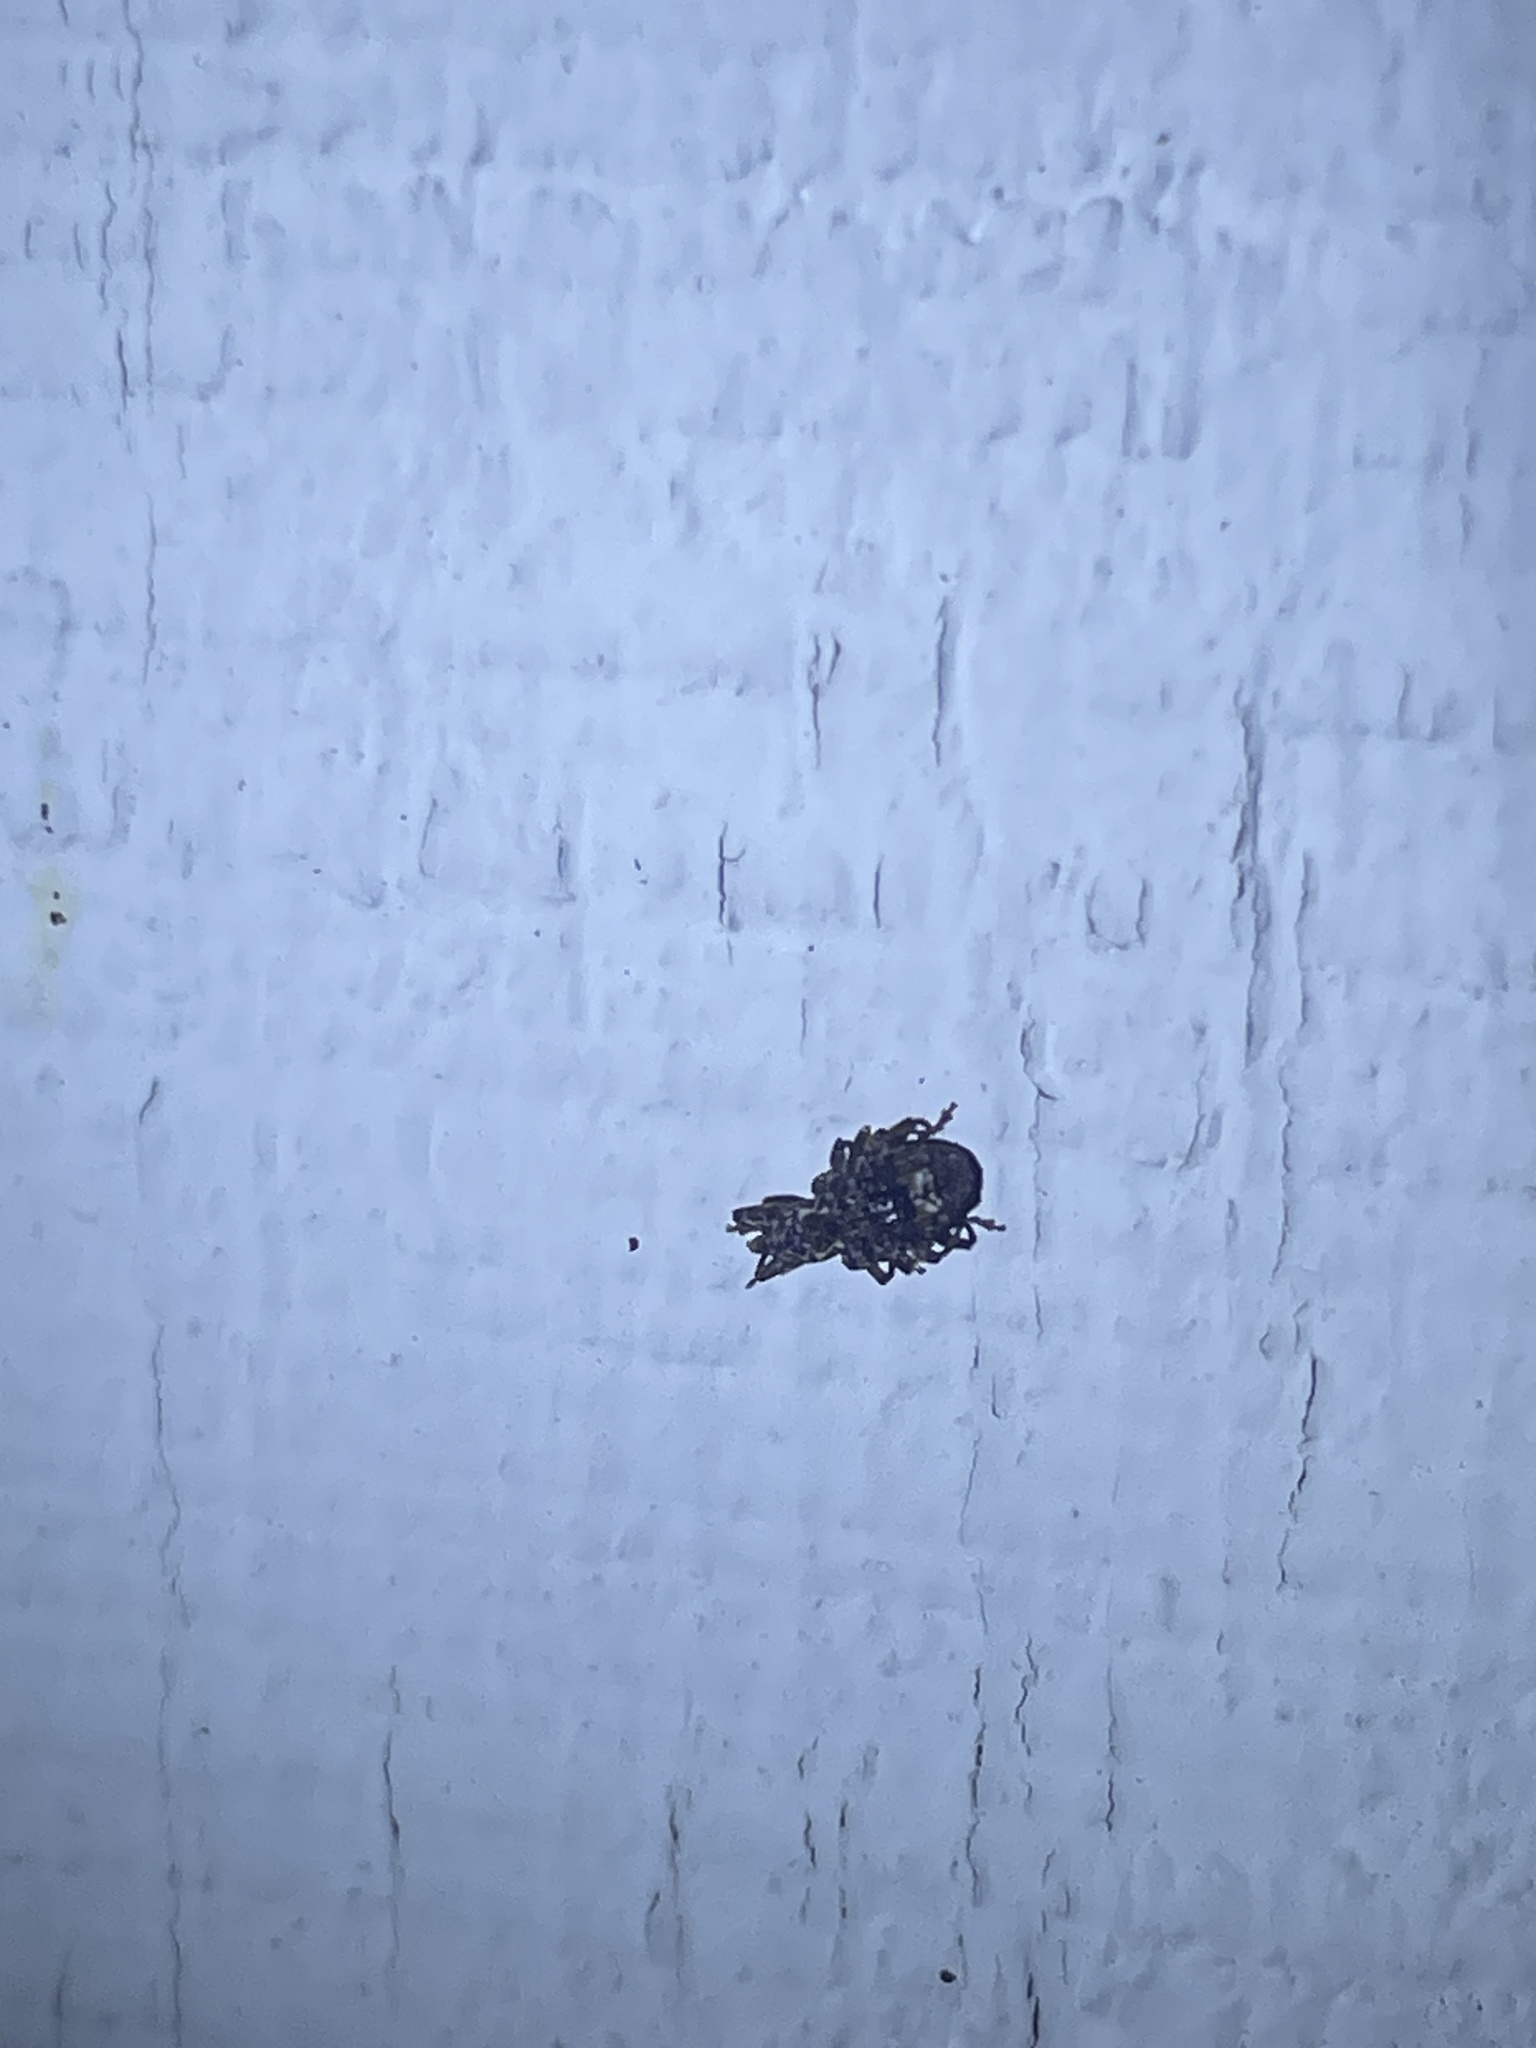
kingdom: Animalia
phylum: Arthropoda
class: Insecta
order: Coleoptera
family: Curculionidae
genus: Conotrachelus
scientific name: Conotrachelus nenuphar
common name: Plum curculio
